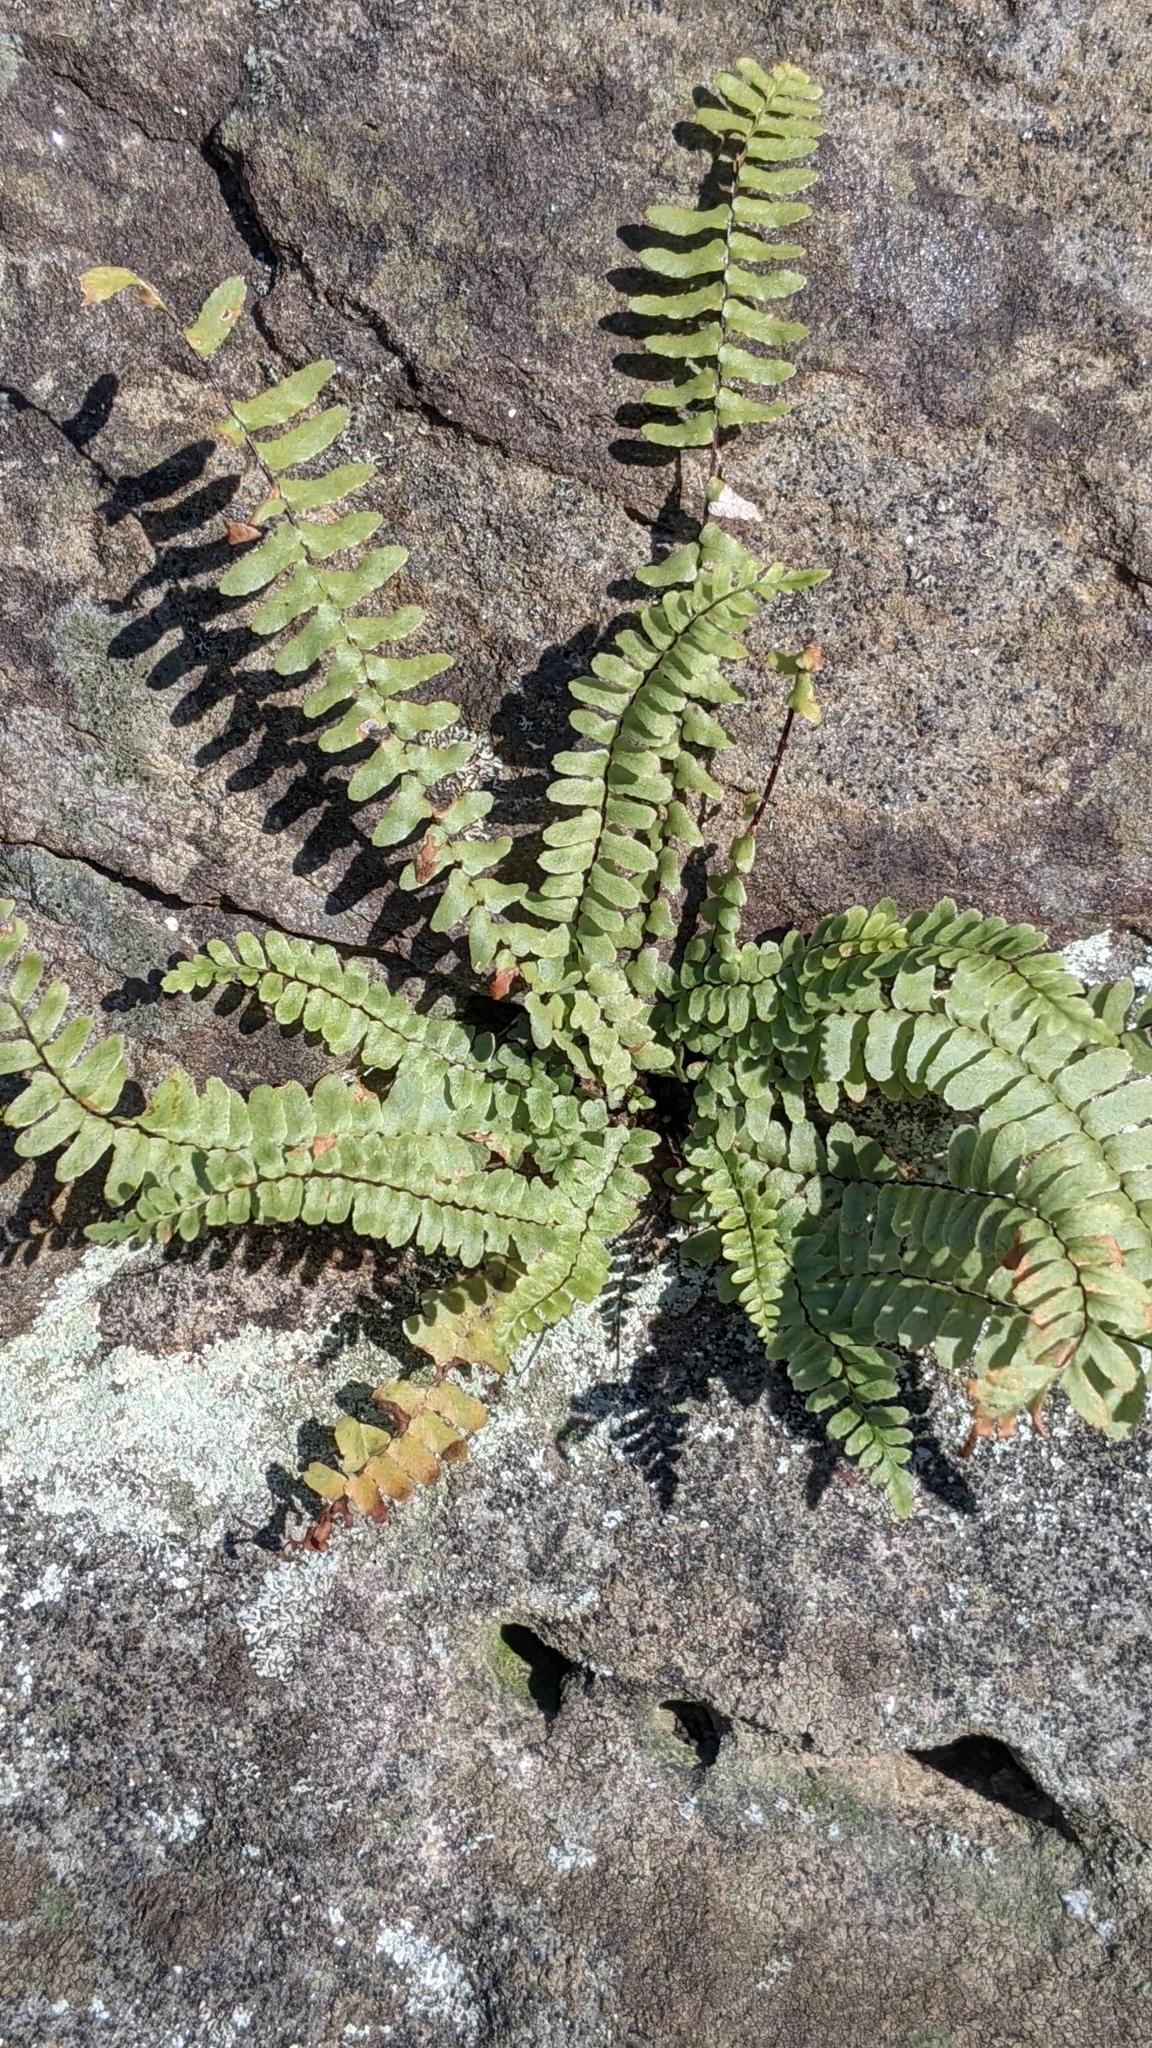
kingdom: Plantae
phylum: Tracheophyta
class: Polypodiopsida
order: Polypodiales
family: Aspleniaceae
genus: Asplenium
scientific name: Asplenium platyneuron
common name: Ebony spleenwort
